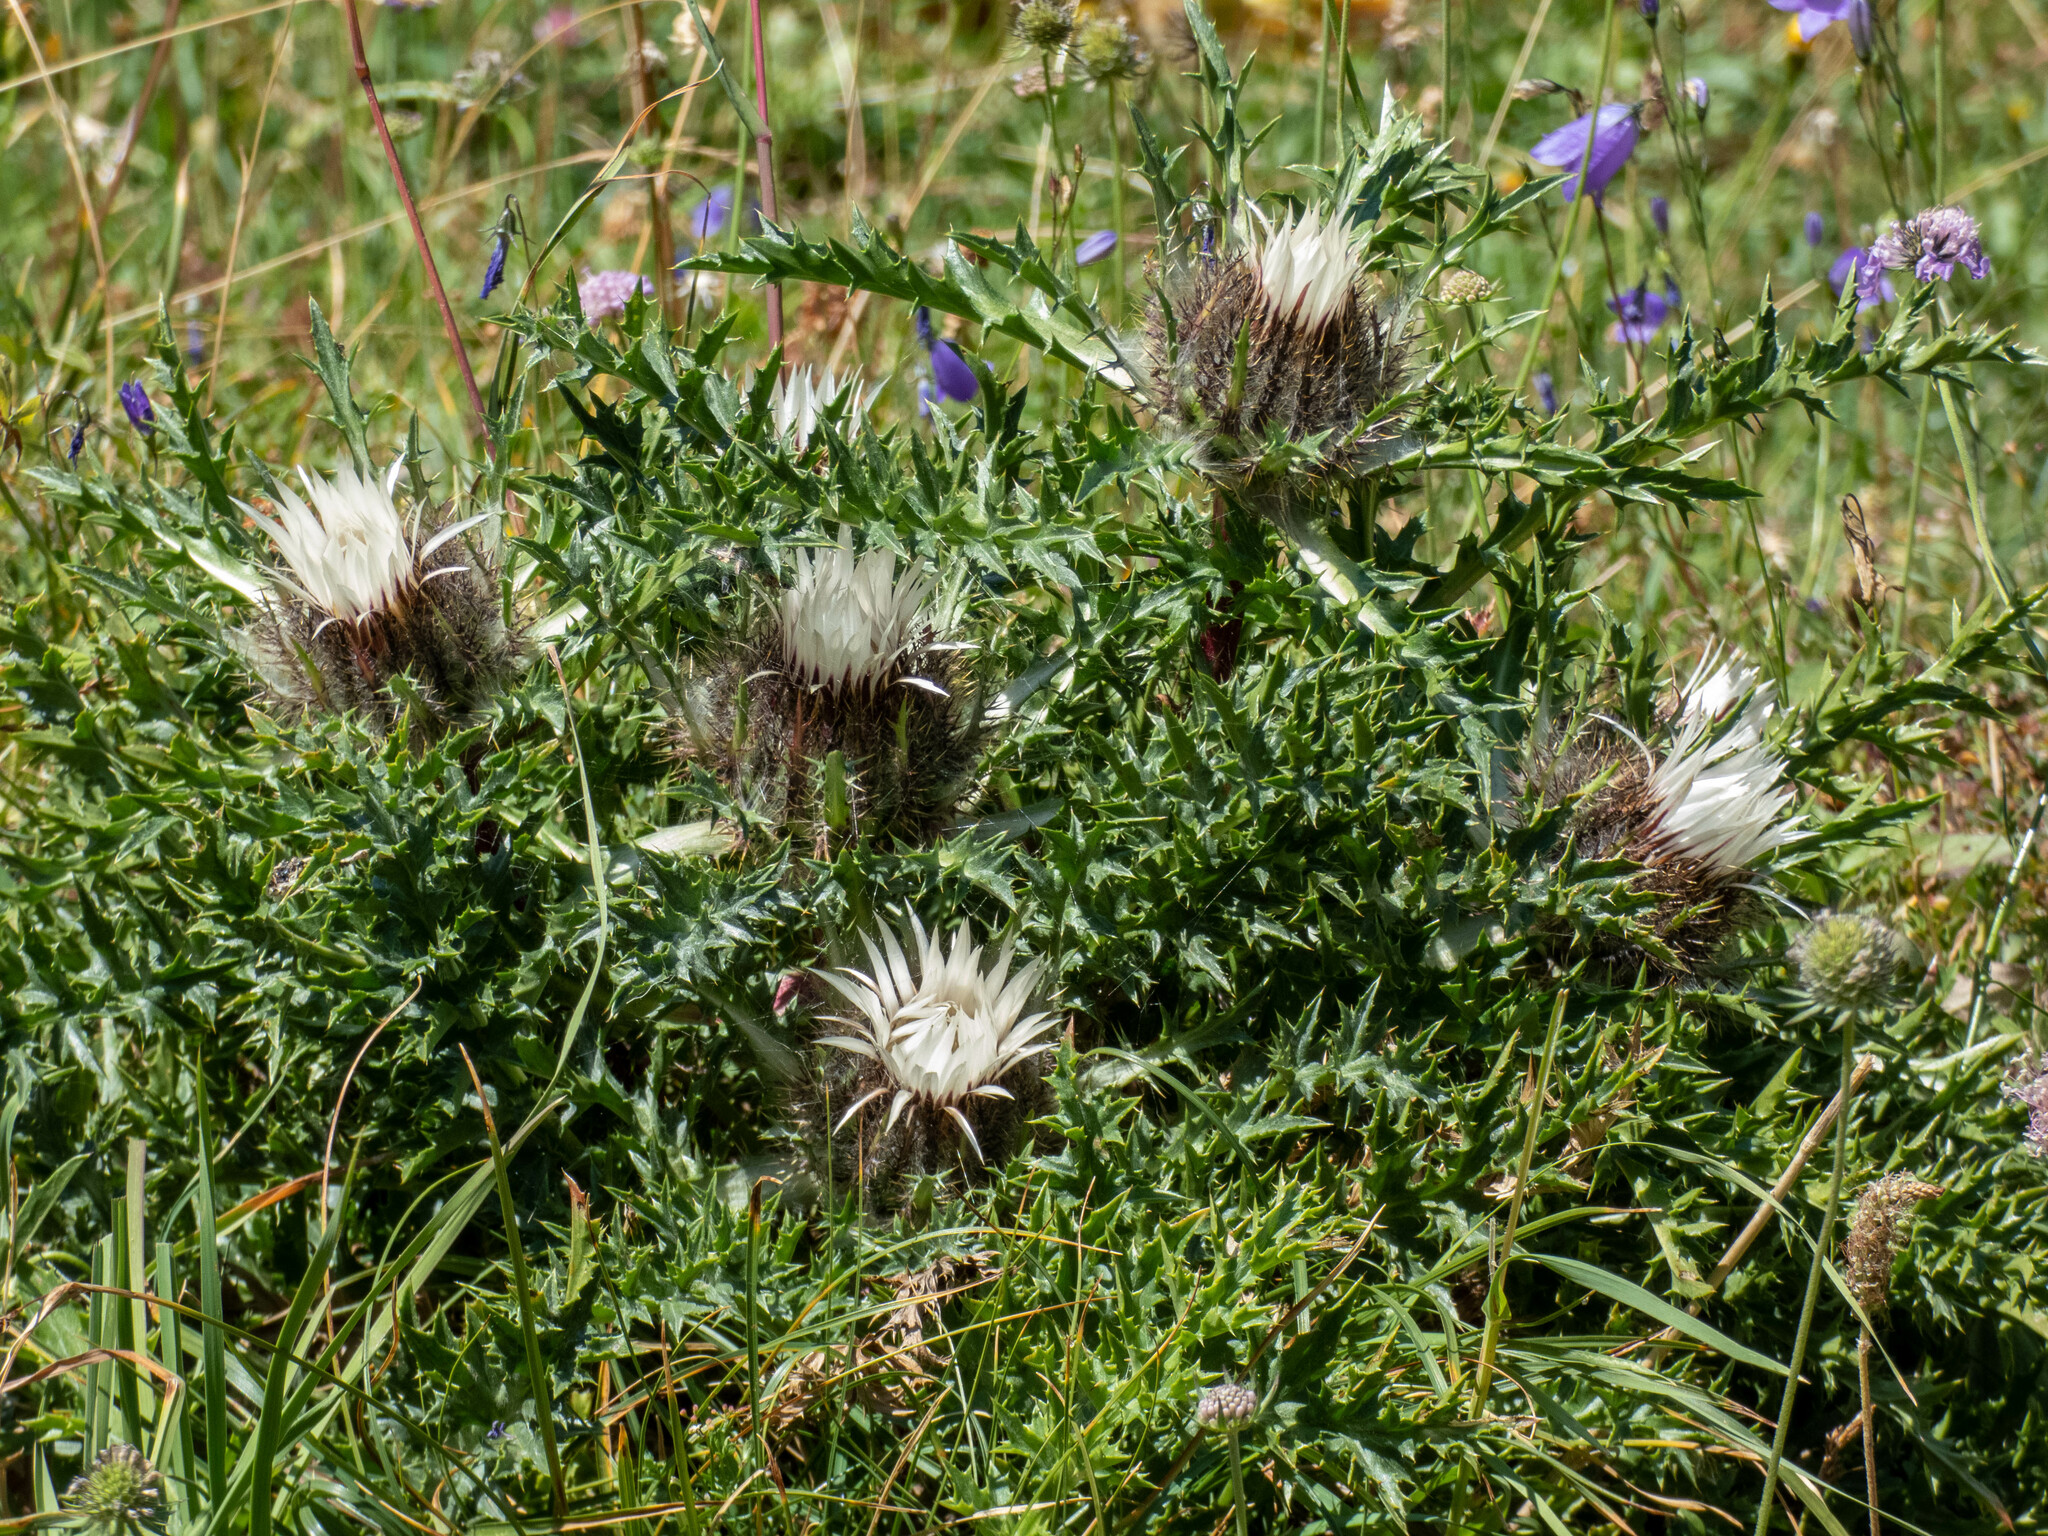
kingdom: Plantae
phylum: Tracheophyta
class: Magnoliopsida
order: Asterales
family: Asteraceae
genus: Carlina
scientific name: Carlina acaulis
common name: Stemless carline thistle
